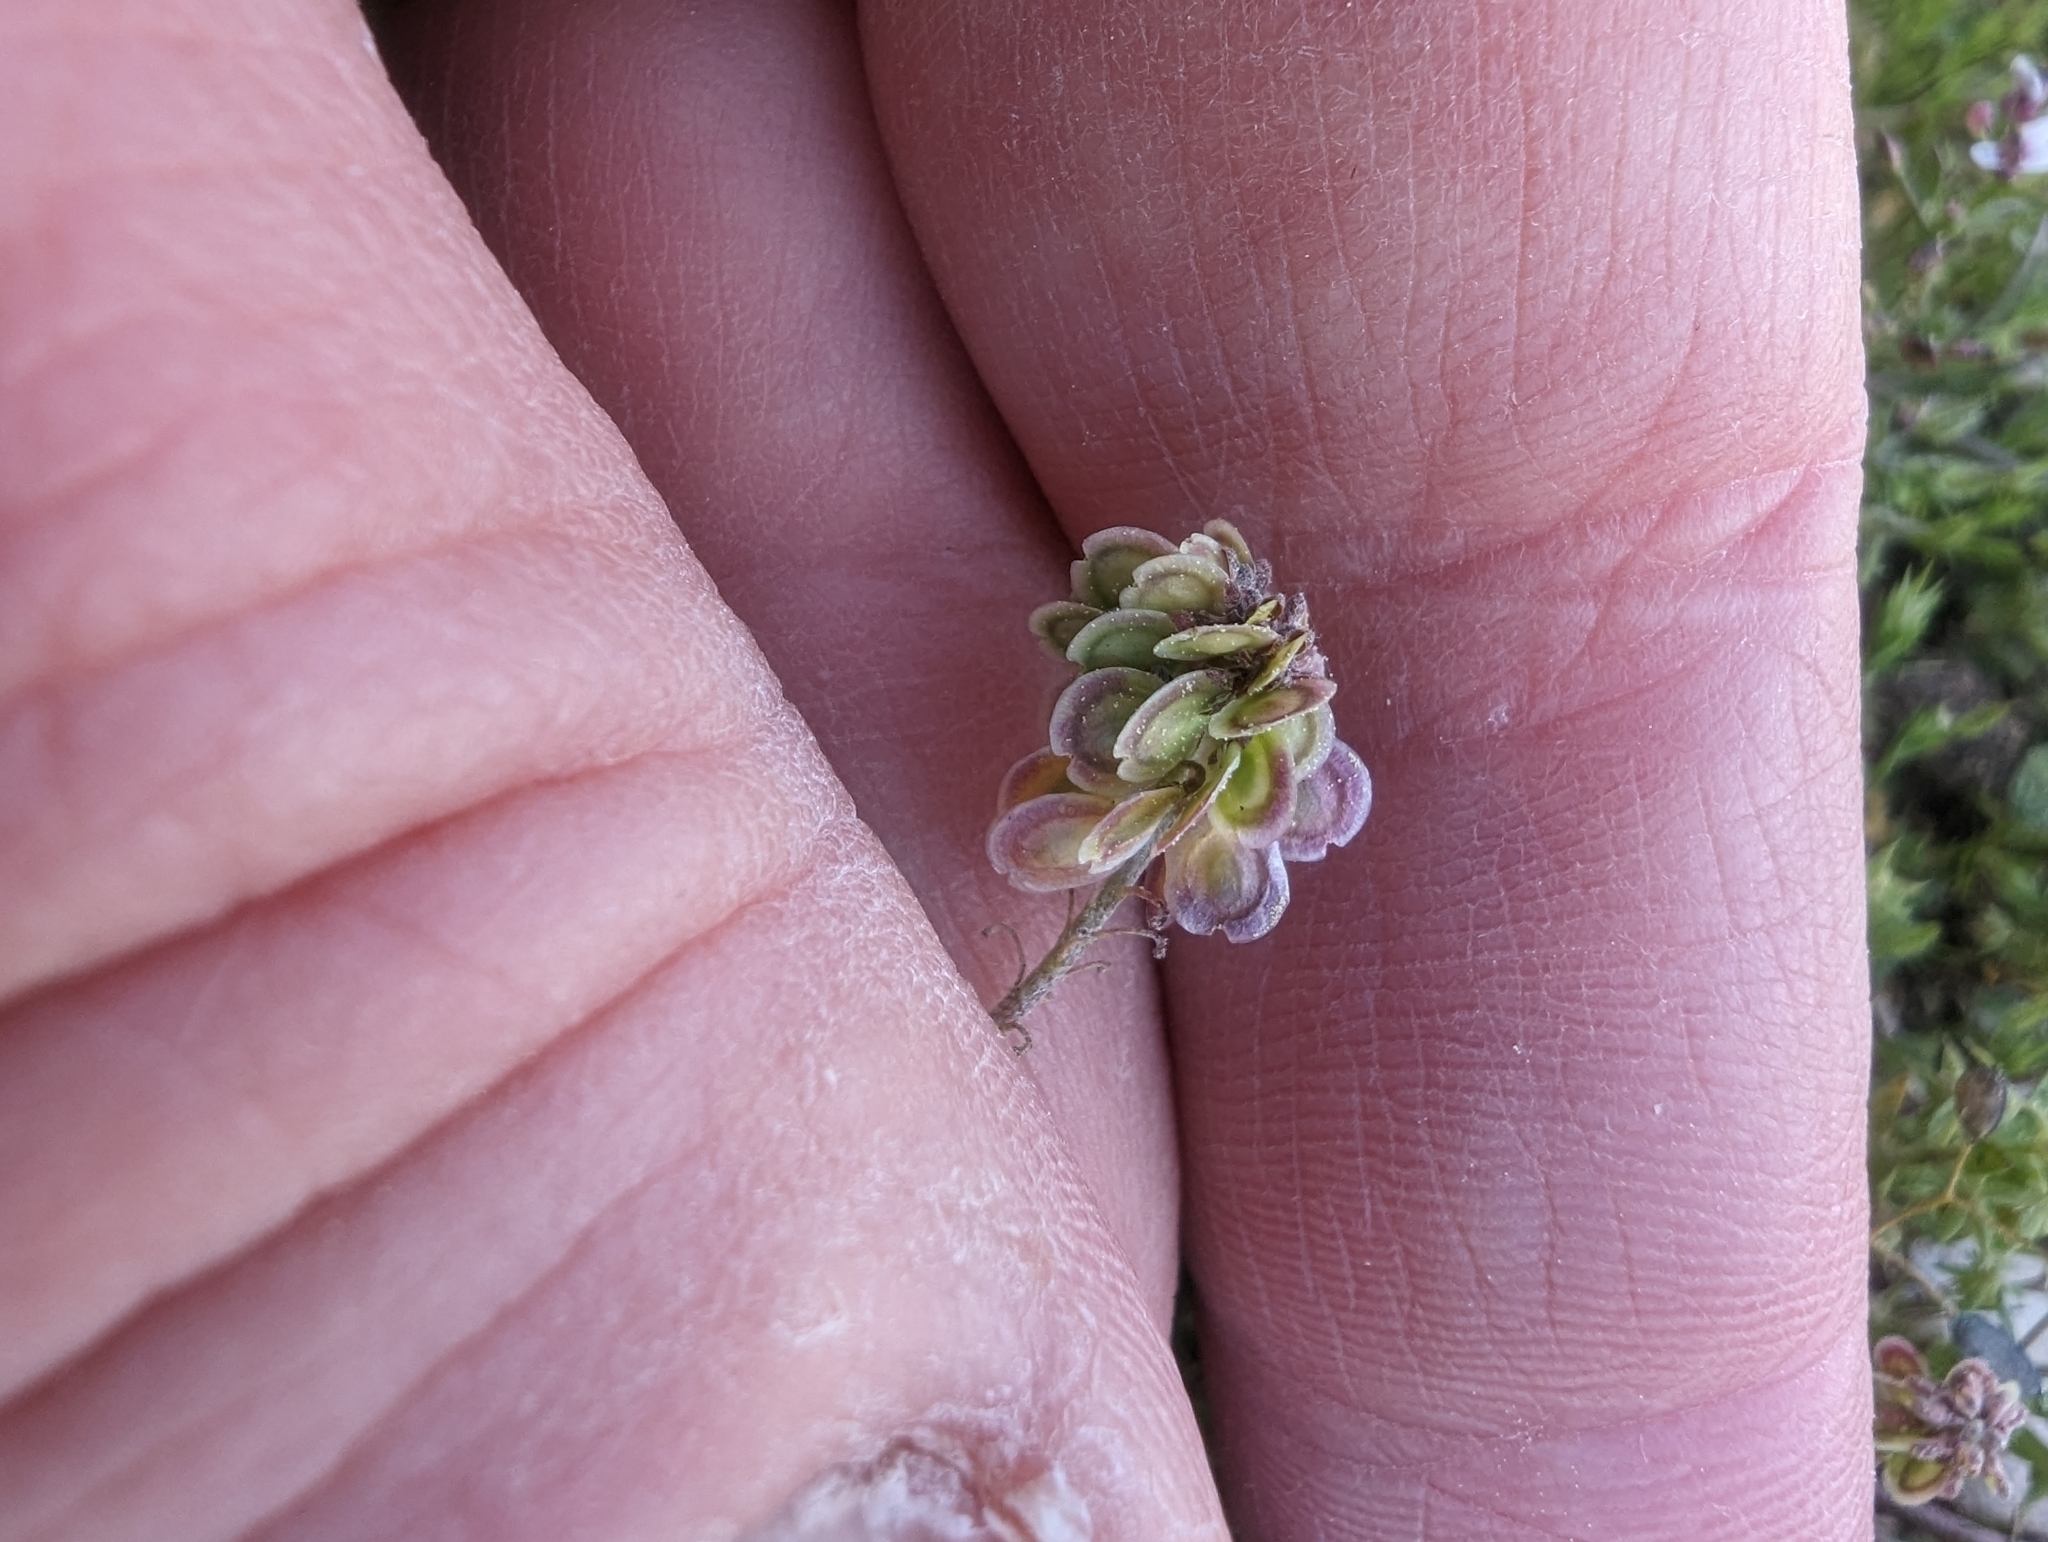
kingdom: Plantae
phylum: Tracheophyta
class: Magnoliopsida
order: Brassicales
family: Brassicaceae
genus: Clypeola
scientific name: Clypeola jonthlaspi
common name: Disk cress
